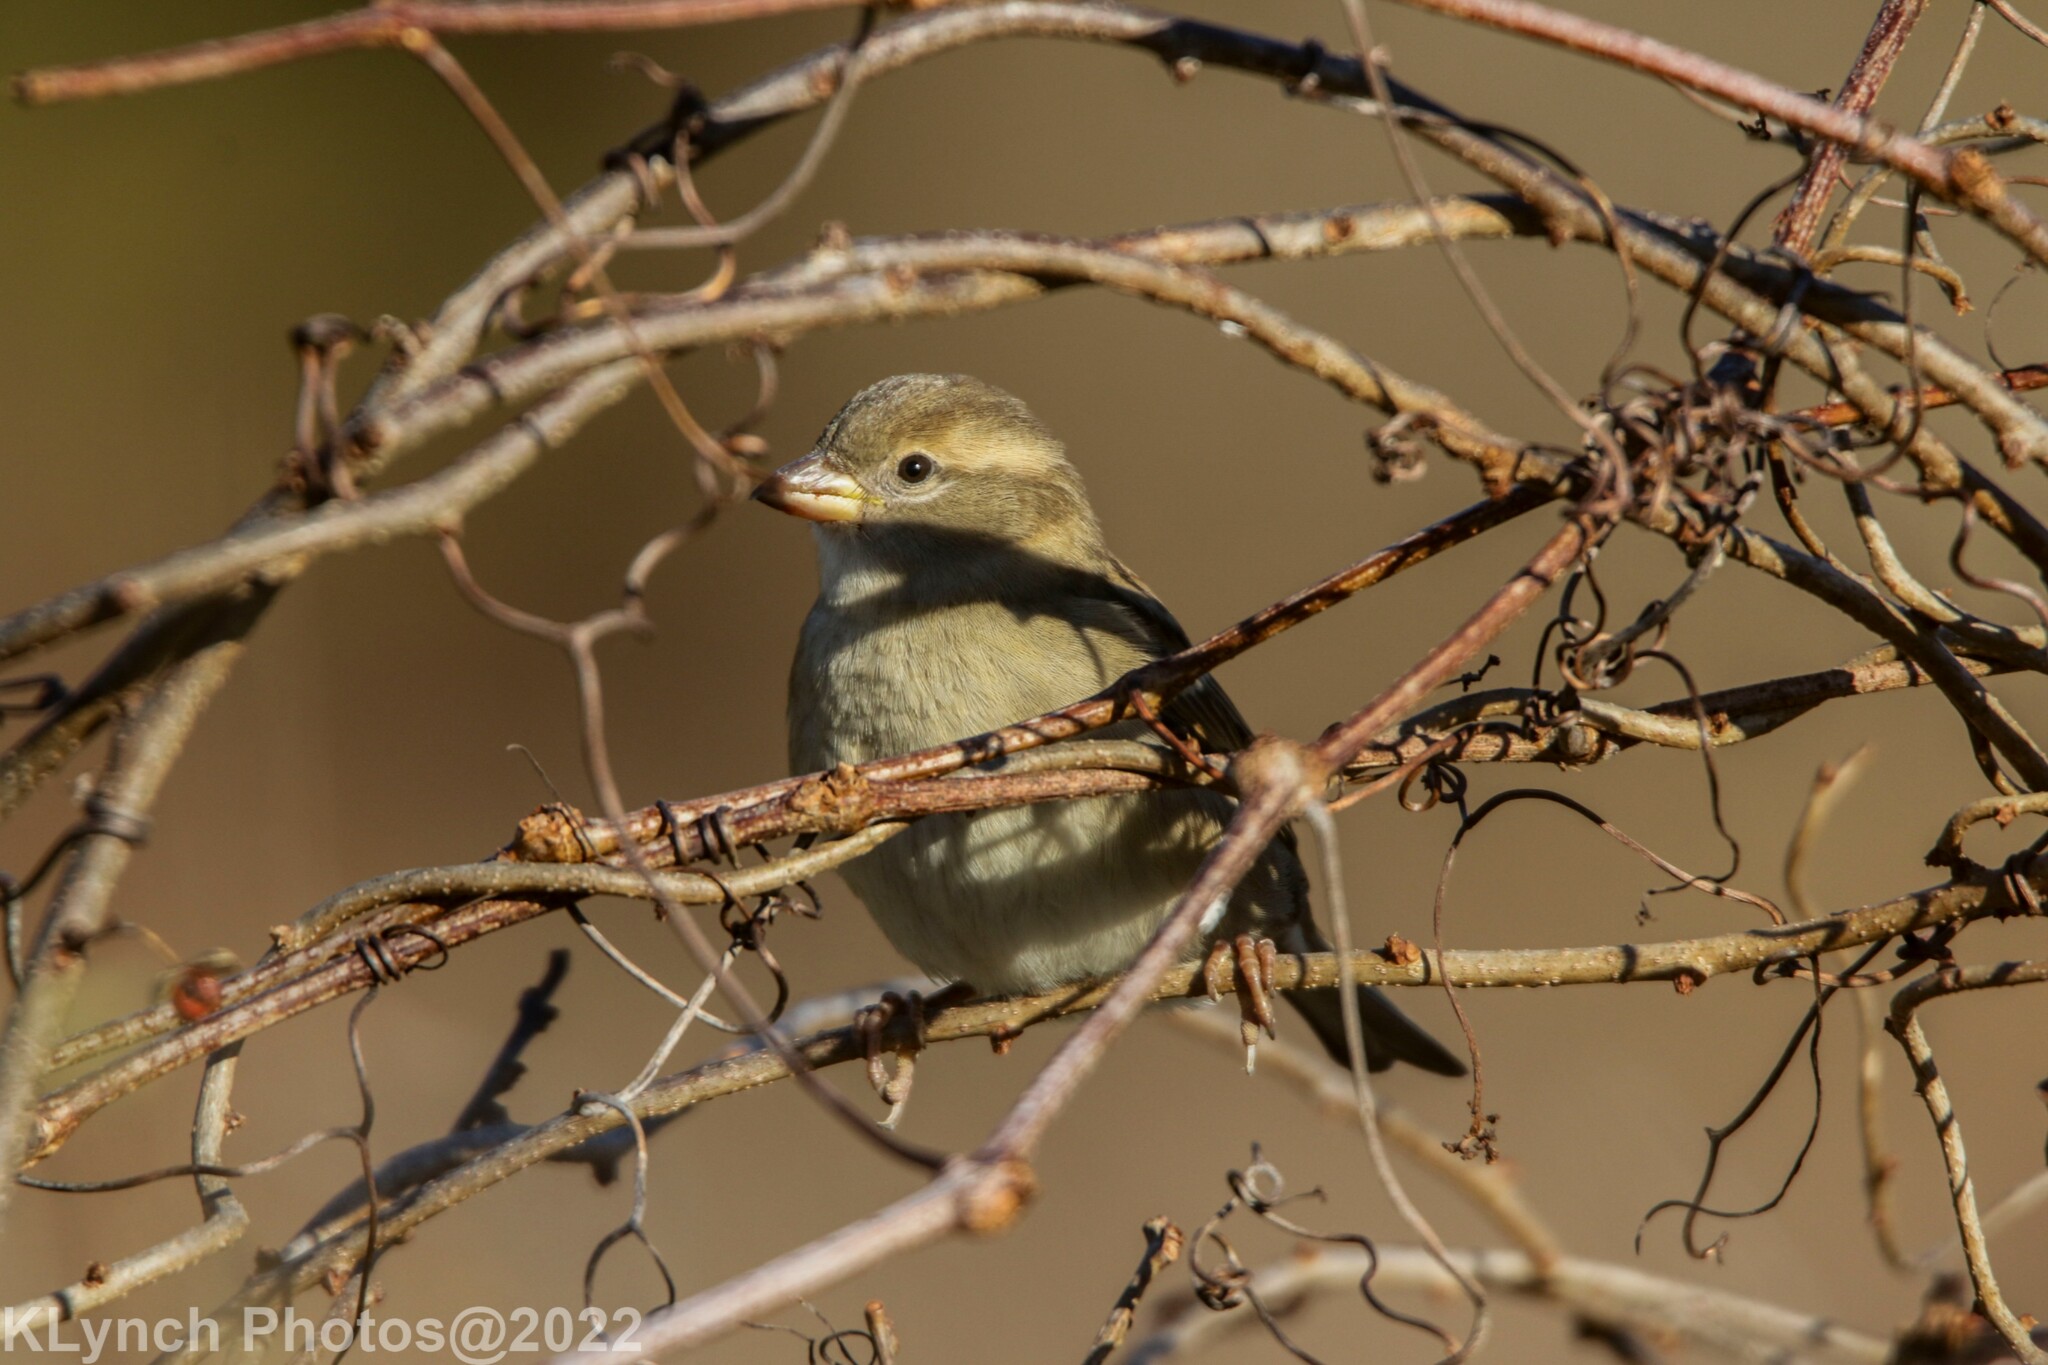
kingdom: Animalia
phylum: Chordata
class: Aves
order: Passeriformes
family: Passeridae
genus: Passer
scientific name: Passer domesticus
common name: House sparrow
